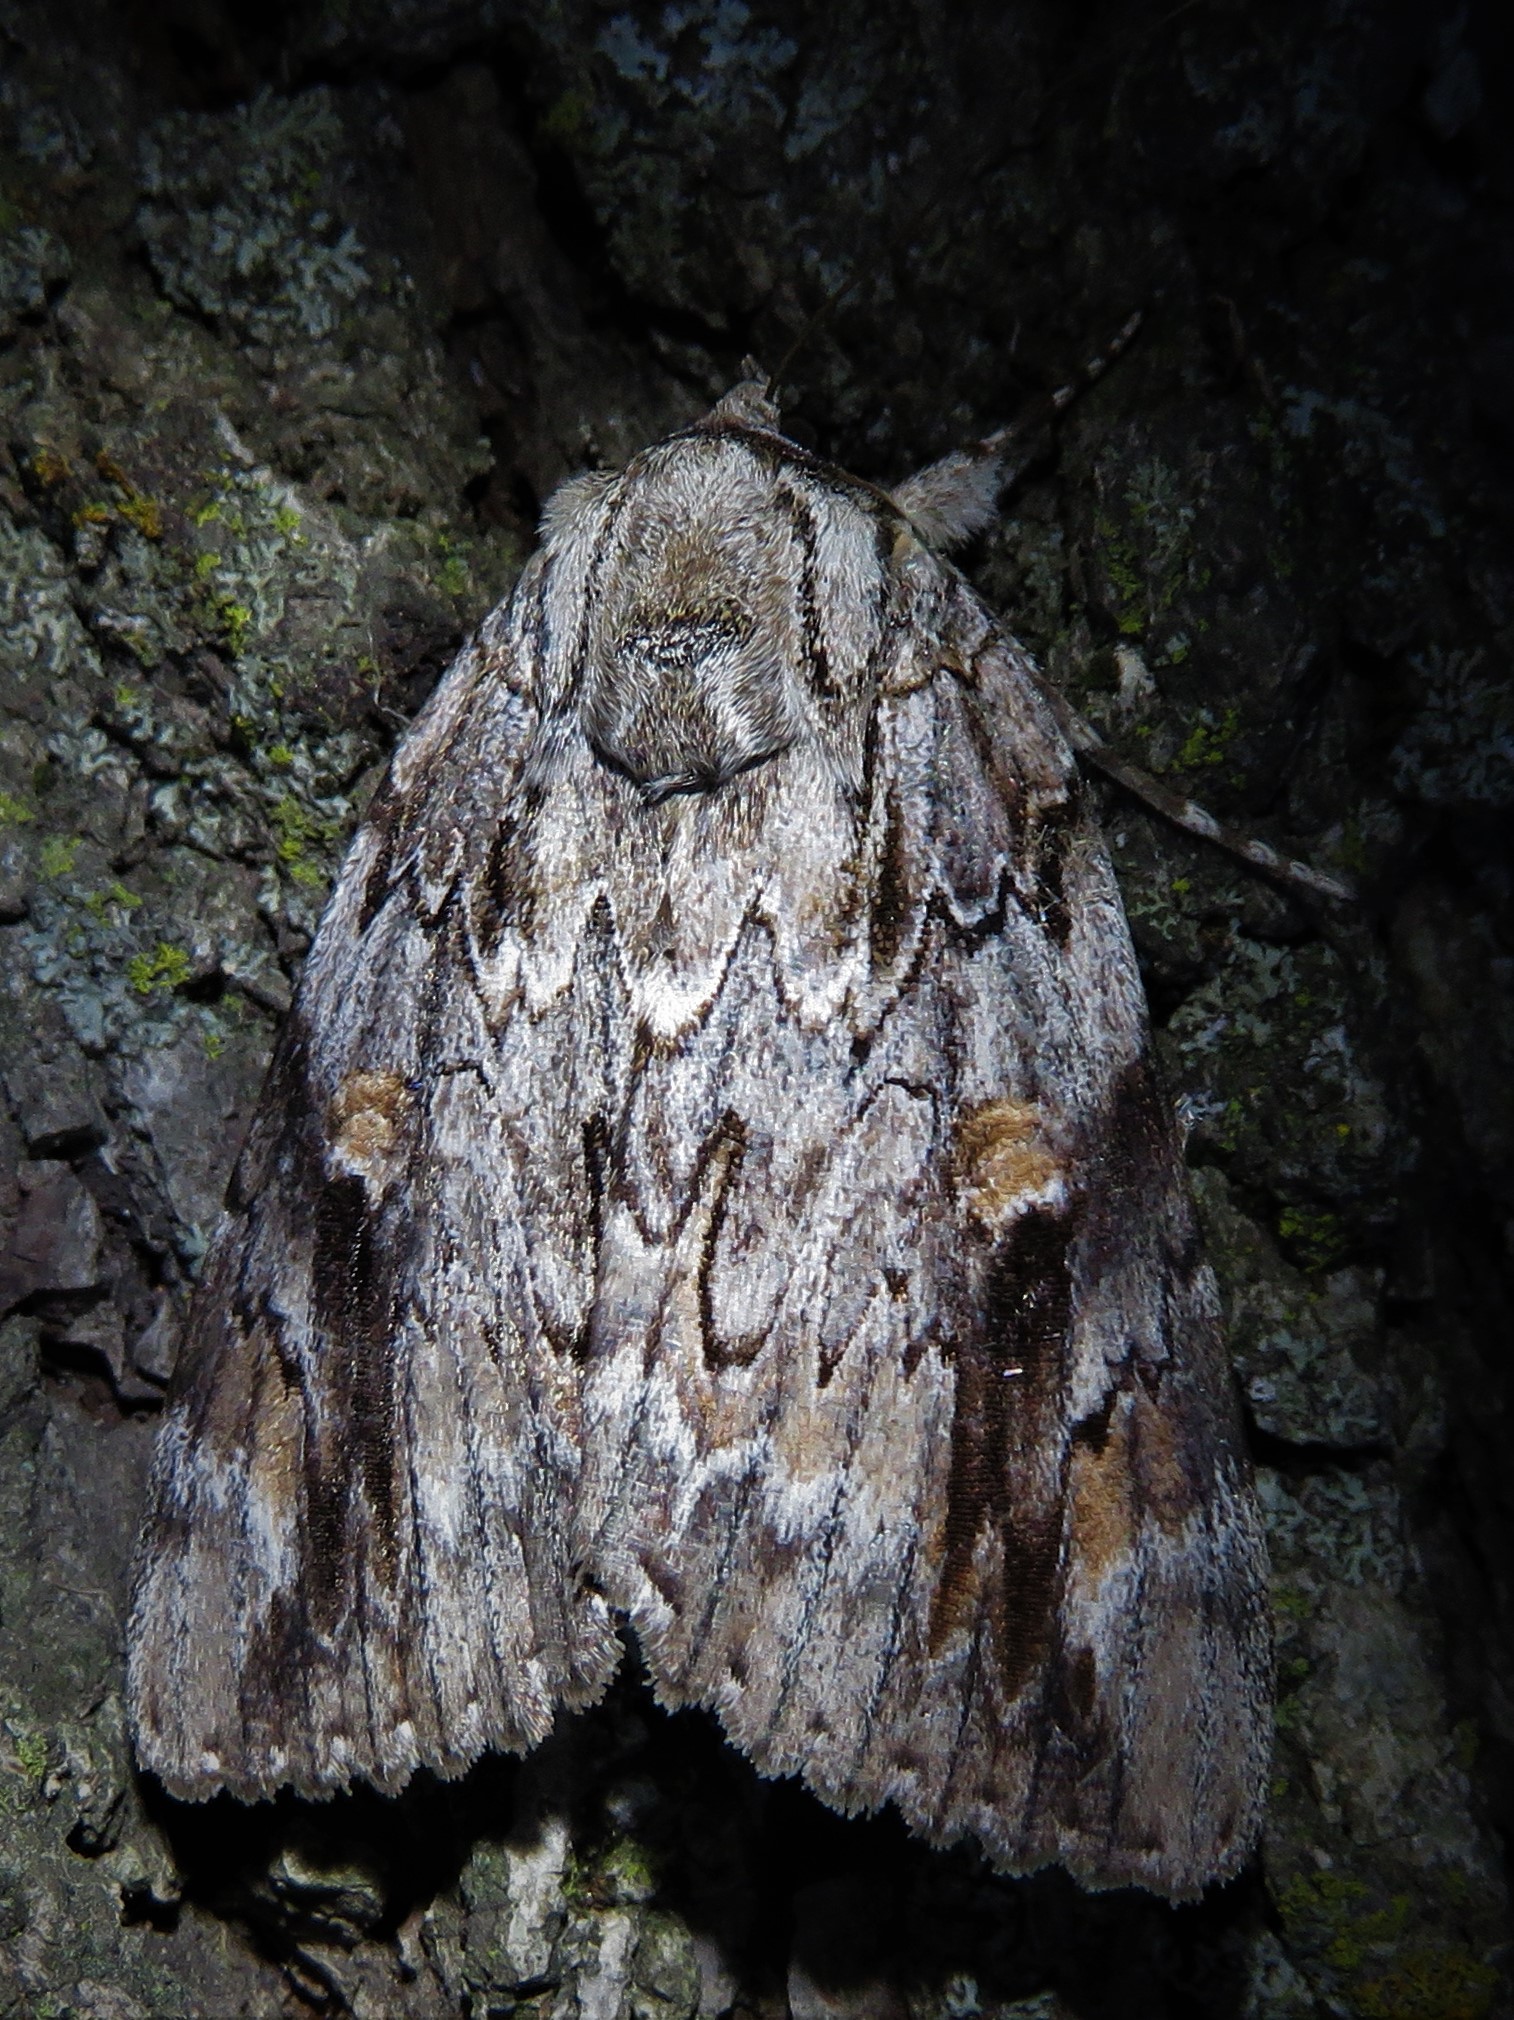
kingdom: Animalia
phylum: Arthropoda
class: Insecta
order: Lepidoptera
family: Erebidae
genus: Catocala
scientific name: Catocala maestosa
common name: Sad underwing
